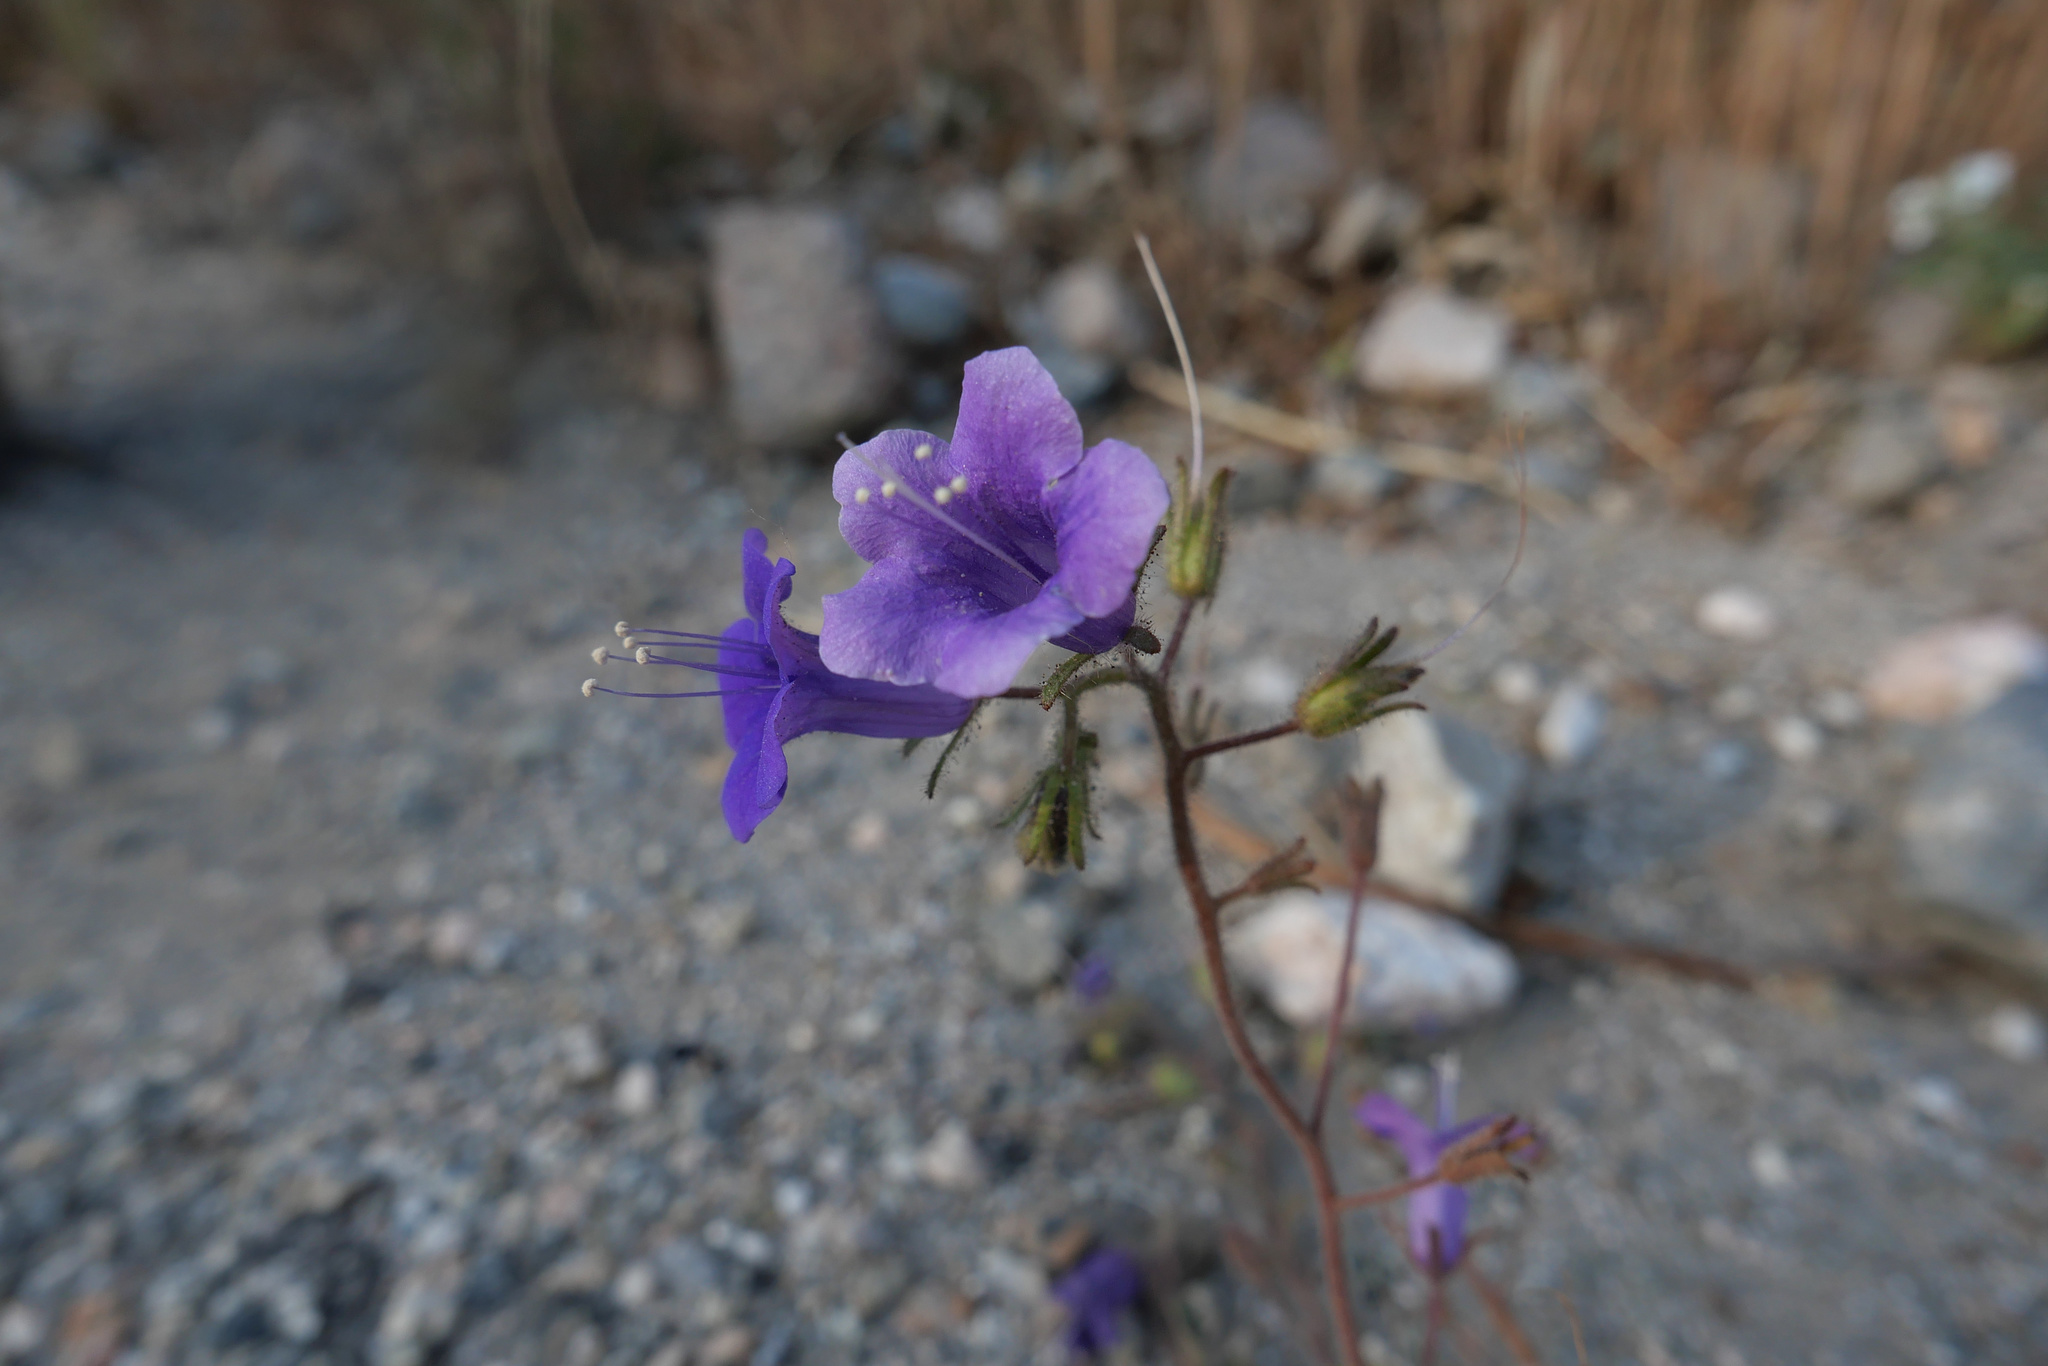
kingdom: Plantae
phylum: Tracheophyta
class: Magnoliopsida
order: Boraginales
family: Hydrophyllaceae
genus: Phacelia
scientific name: Phacelia minor
